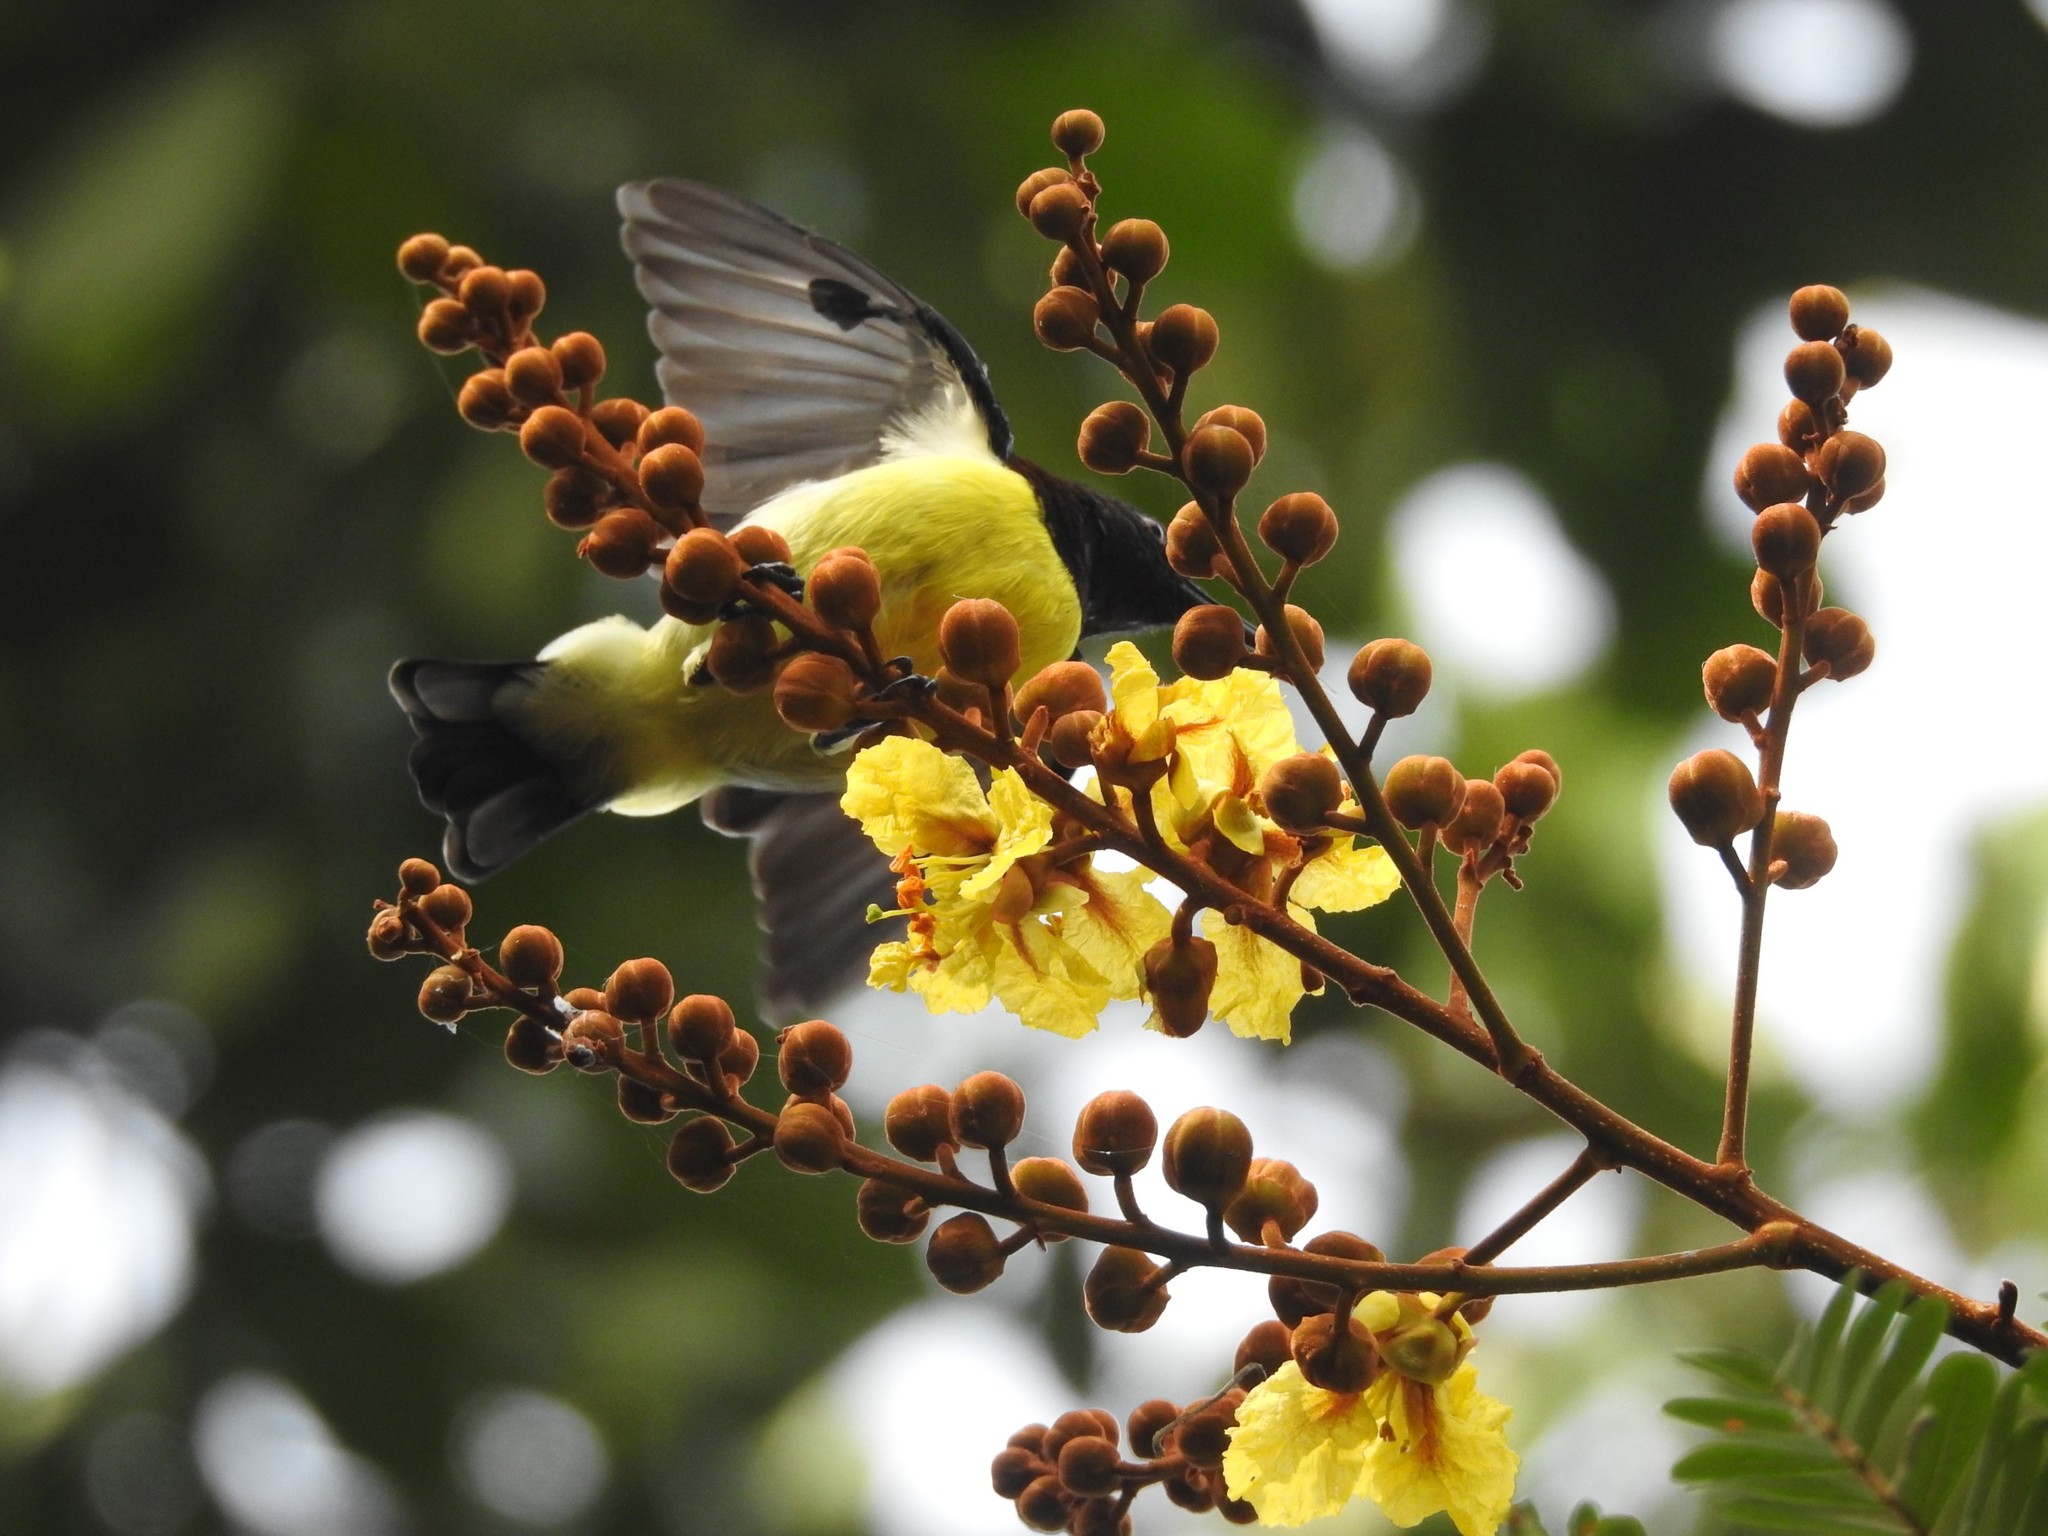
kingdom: Animalia
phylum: Chordata
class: Aves
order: Passeriformes
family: Nectariniidae
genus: Leptocoma
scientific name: Leptocoma zeylonica
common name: Purple-rumped sunbird
